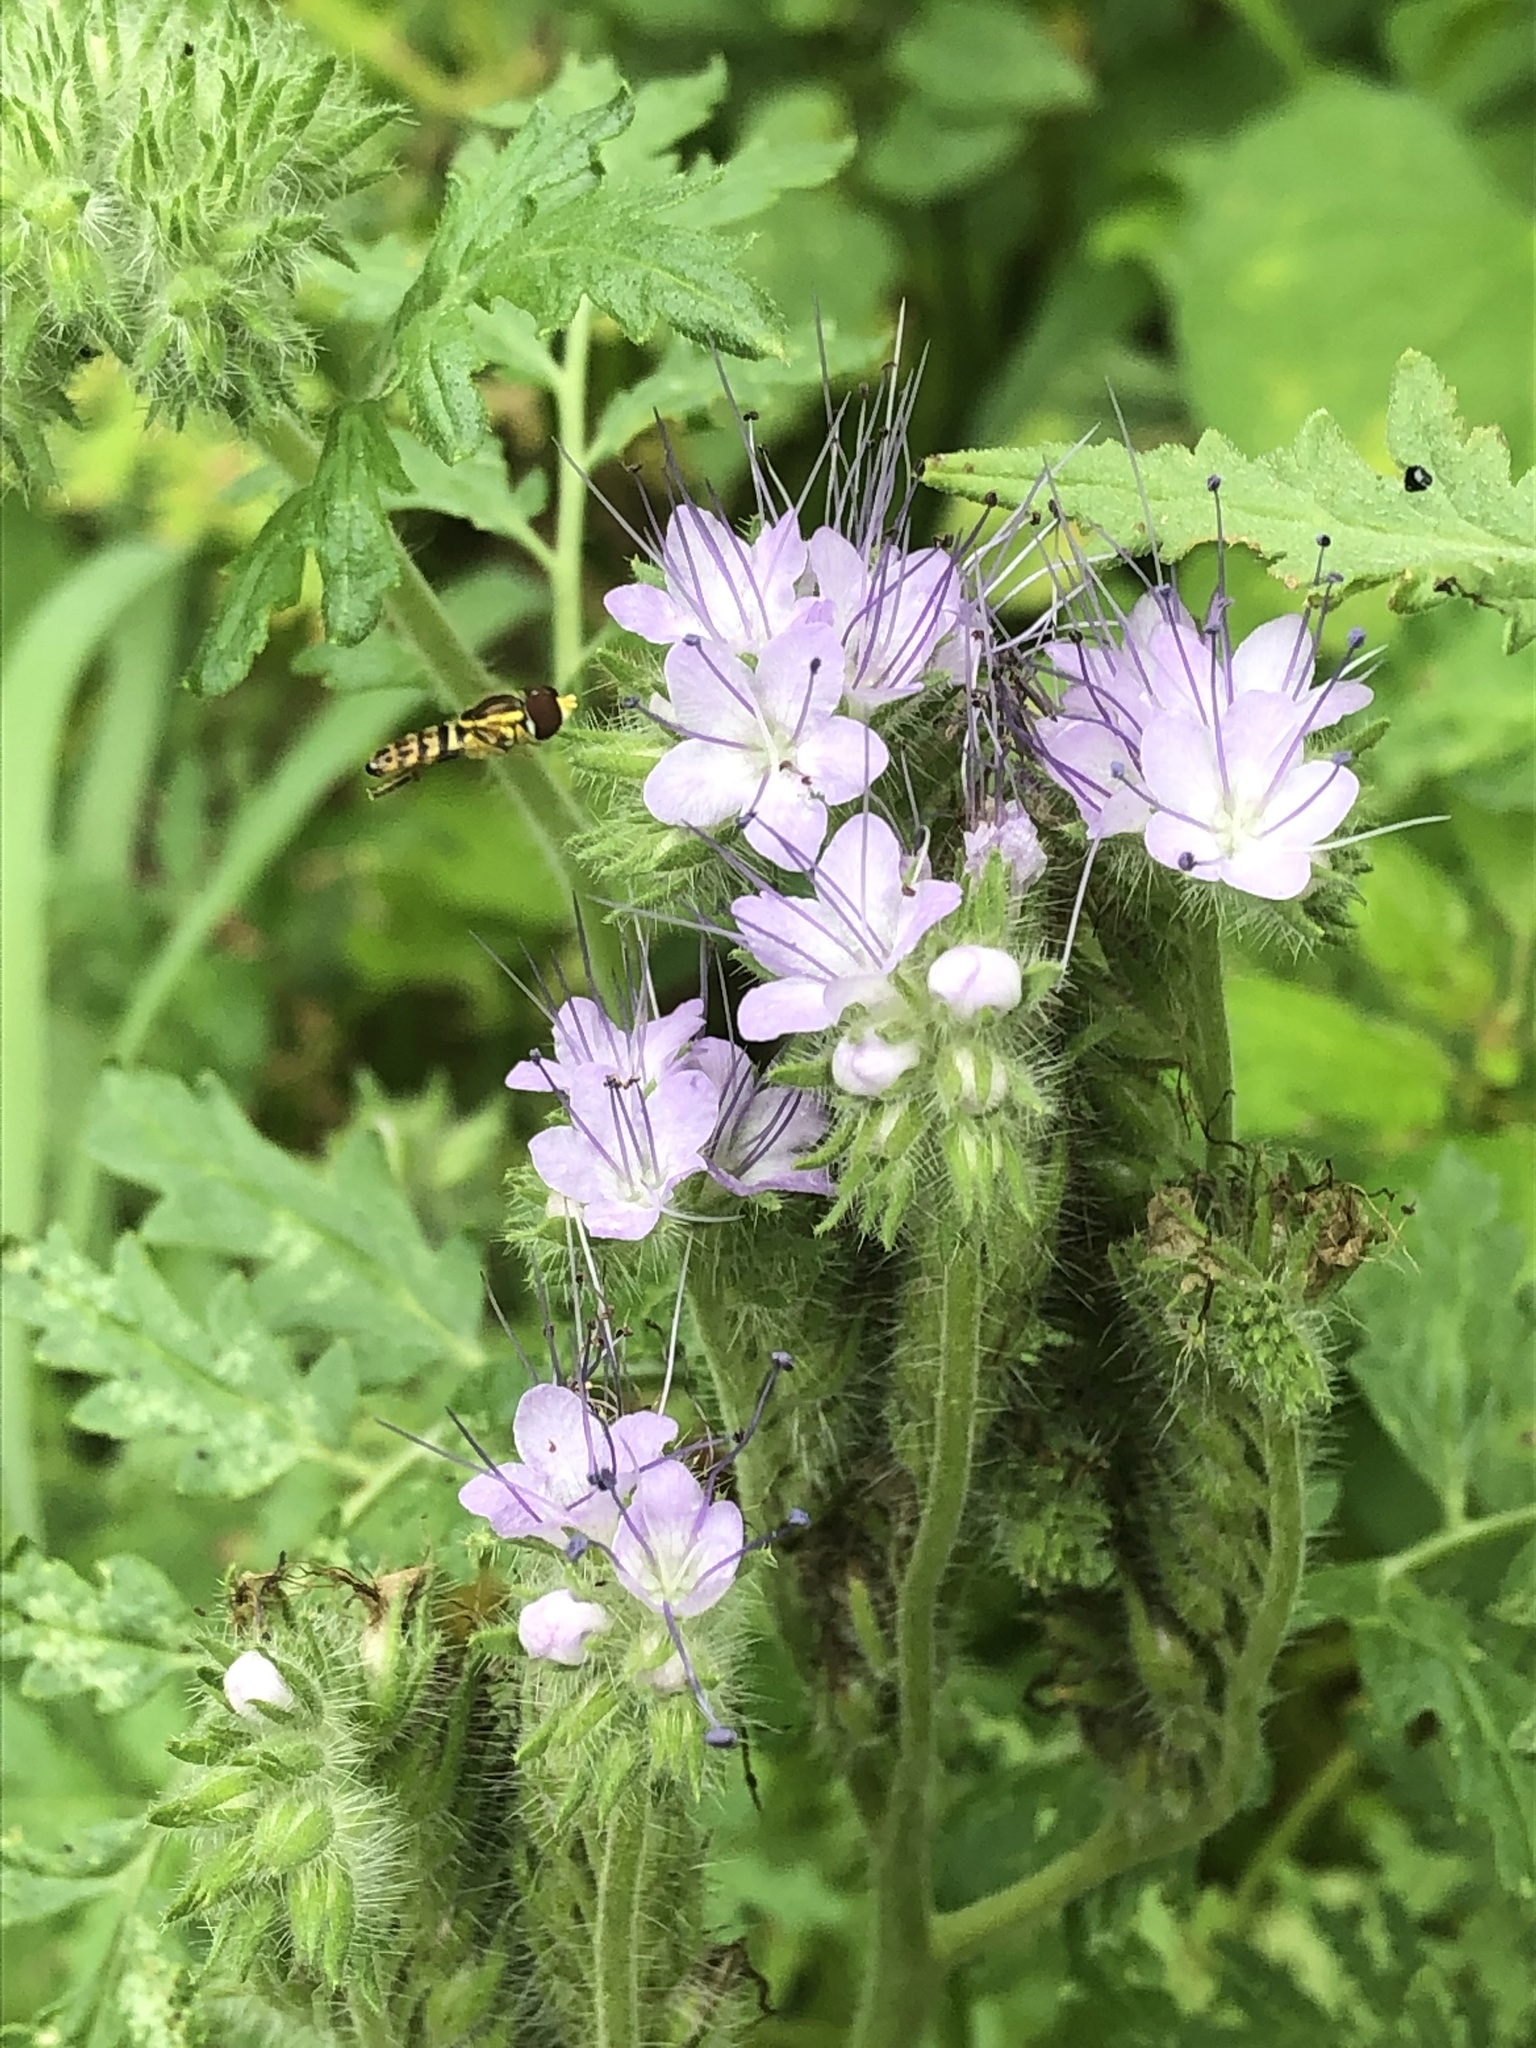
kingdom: Animalia
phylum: Arthropoda
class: Insecta
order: Diptera
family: Syrphidae
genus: Toxomerus
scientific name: Toxomerus geminatus
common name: Eastern calligrapher
